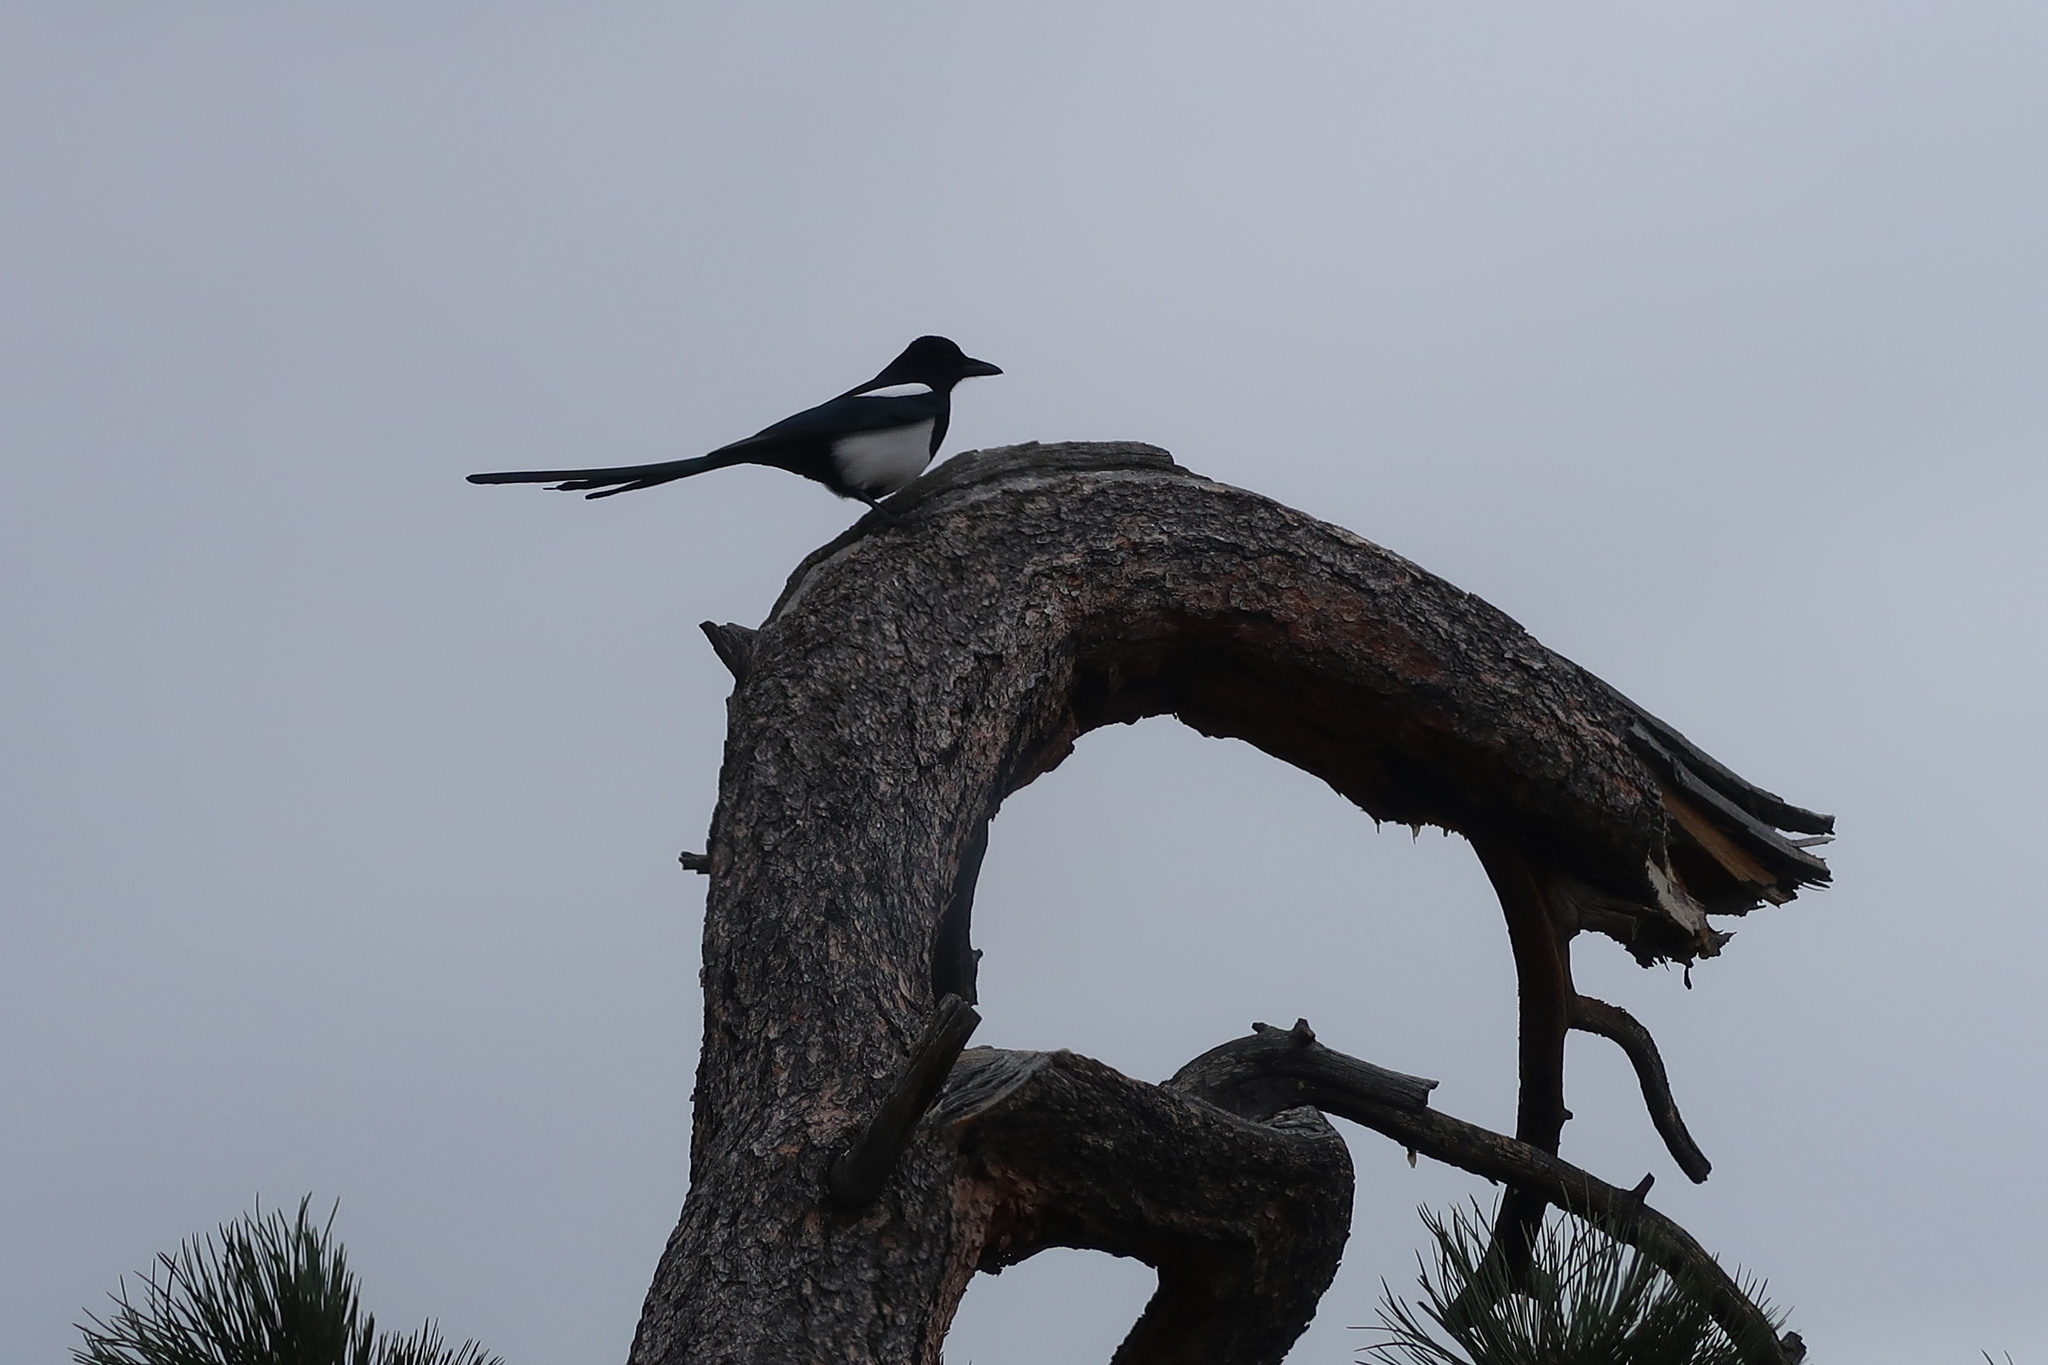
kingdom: Animalia
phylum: Chordata
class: Aves
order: Passeriformes
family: Corvidae
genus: Pica
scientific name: Pica hudsonia
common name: Black-billed magpie
